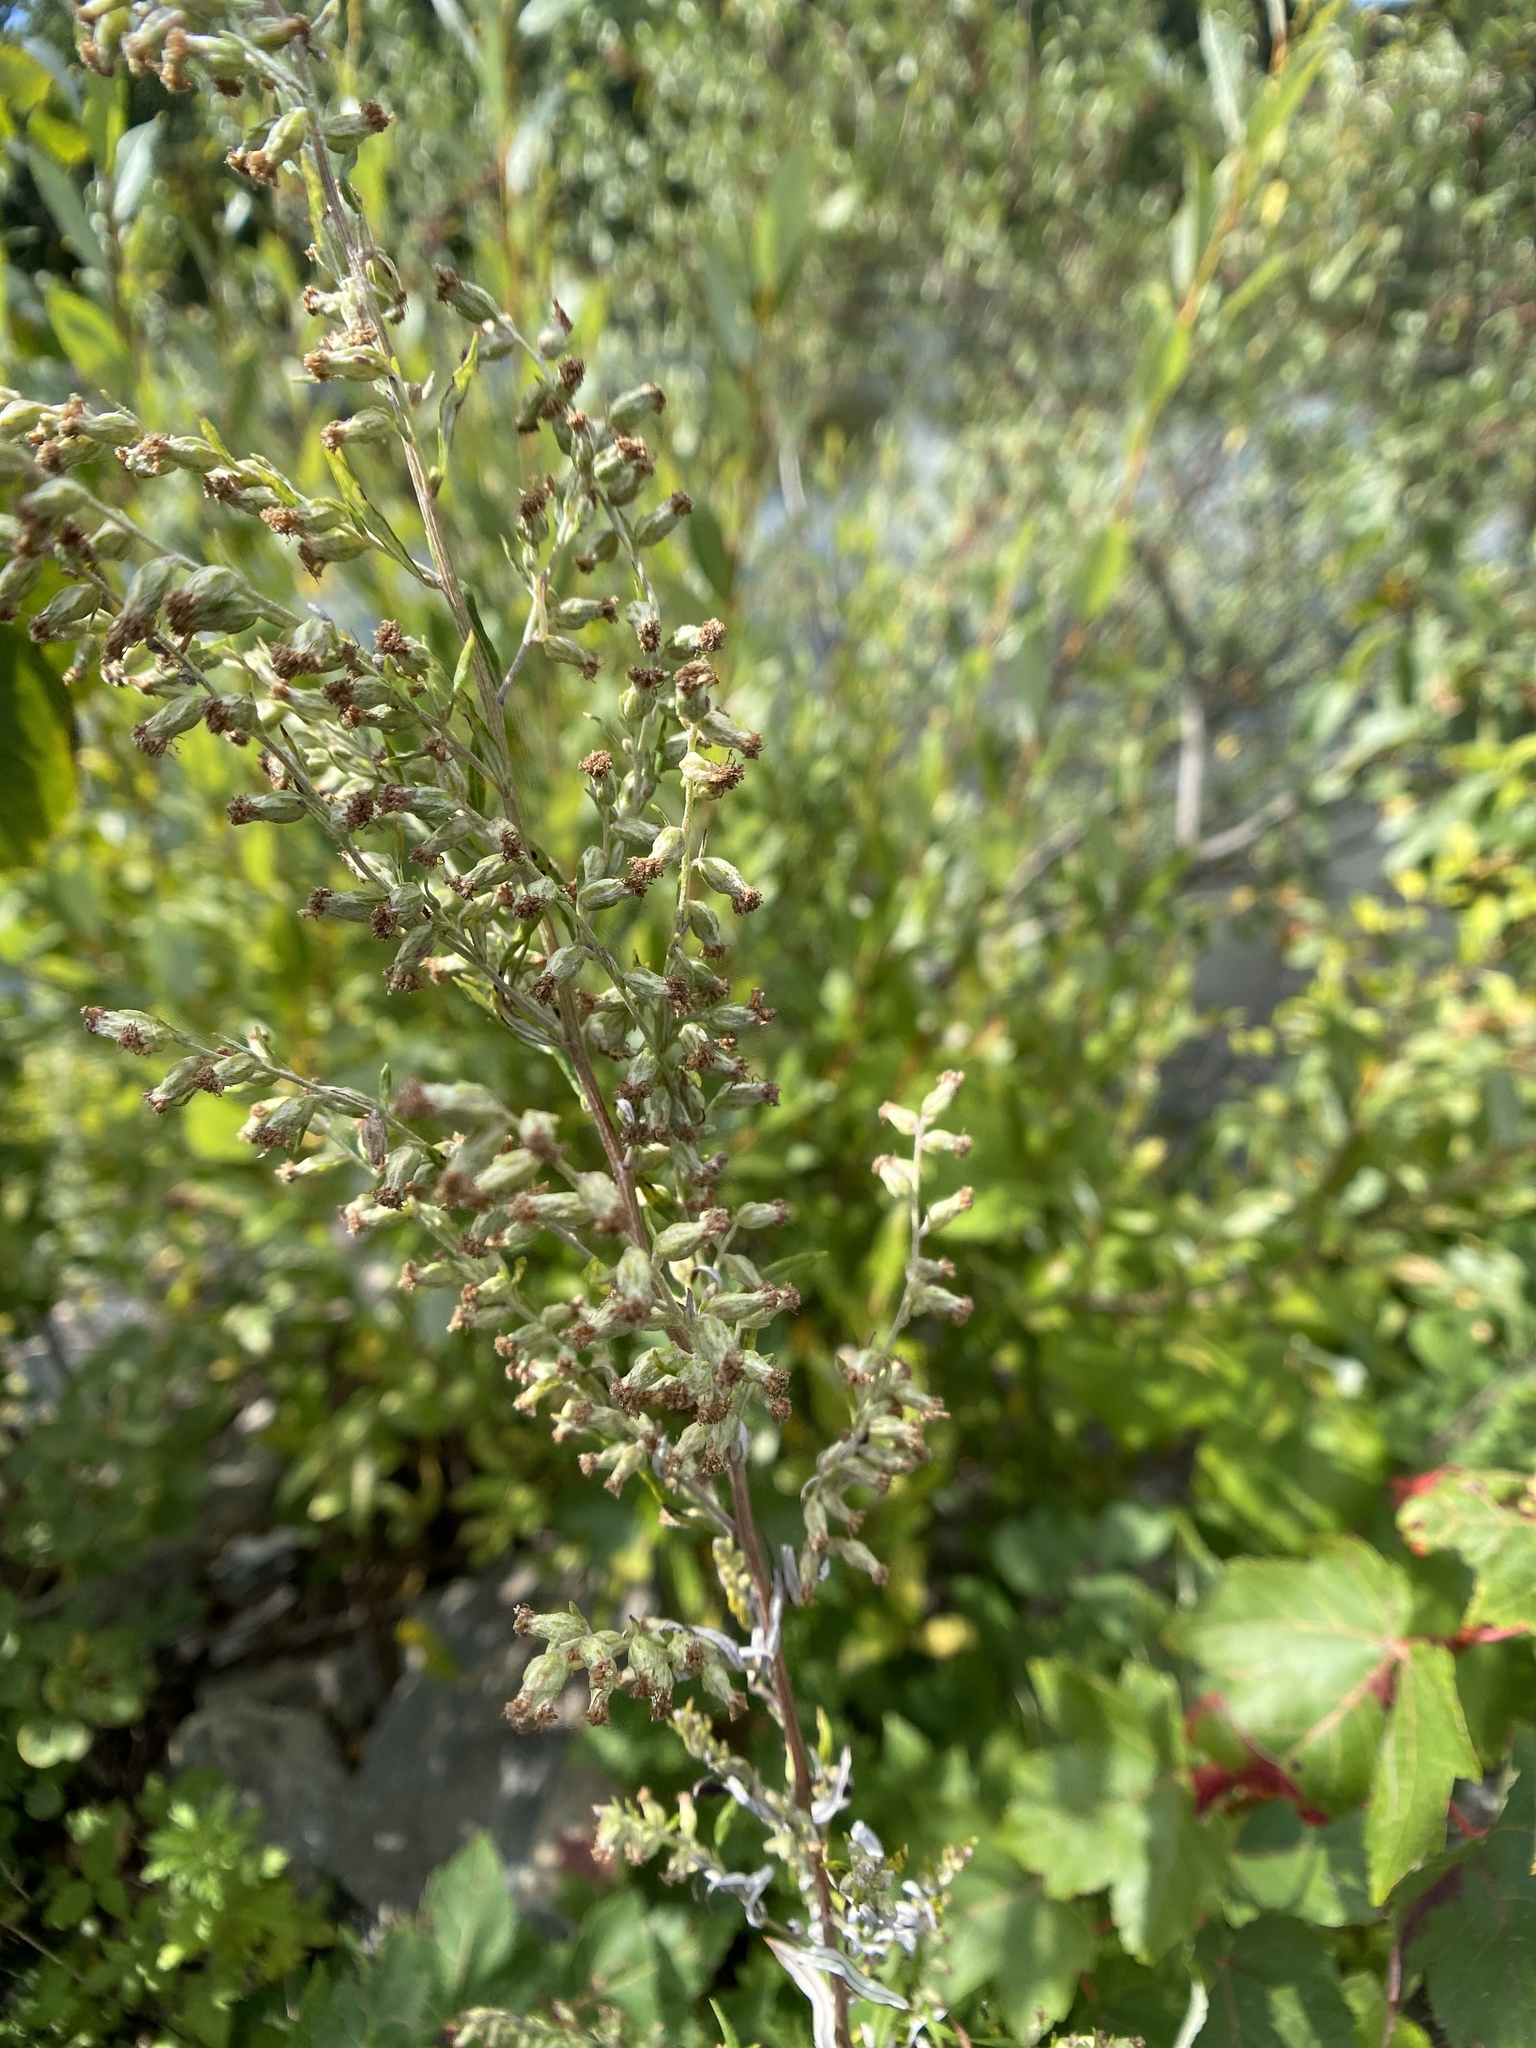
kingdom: Plantae
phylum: Tracheophyta
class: Magnoliopsida
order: Asterales
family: Asteraceae
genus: Artemisia
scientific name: Artemisia vulgaris
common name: Mugwort
